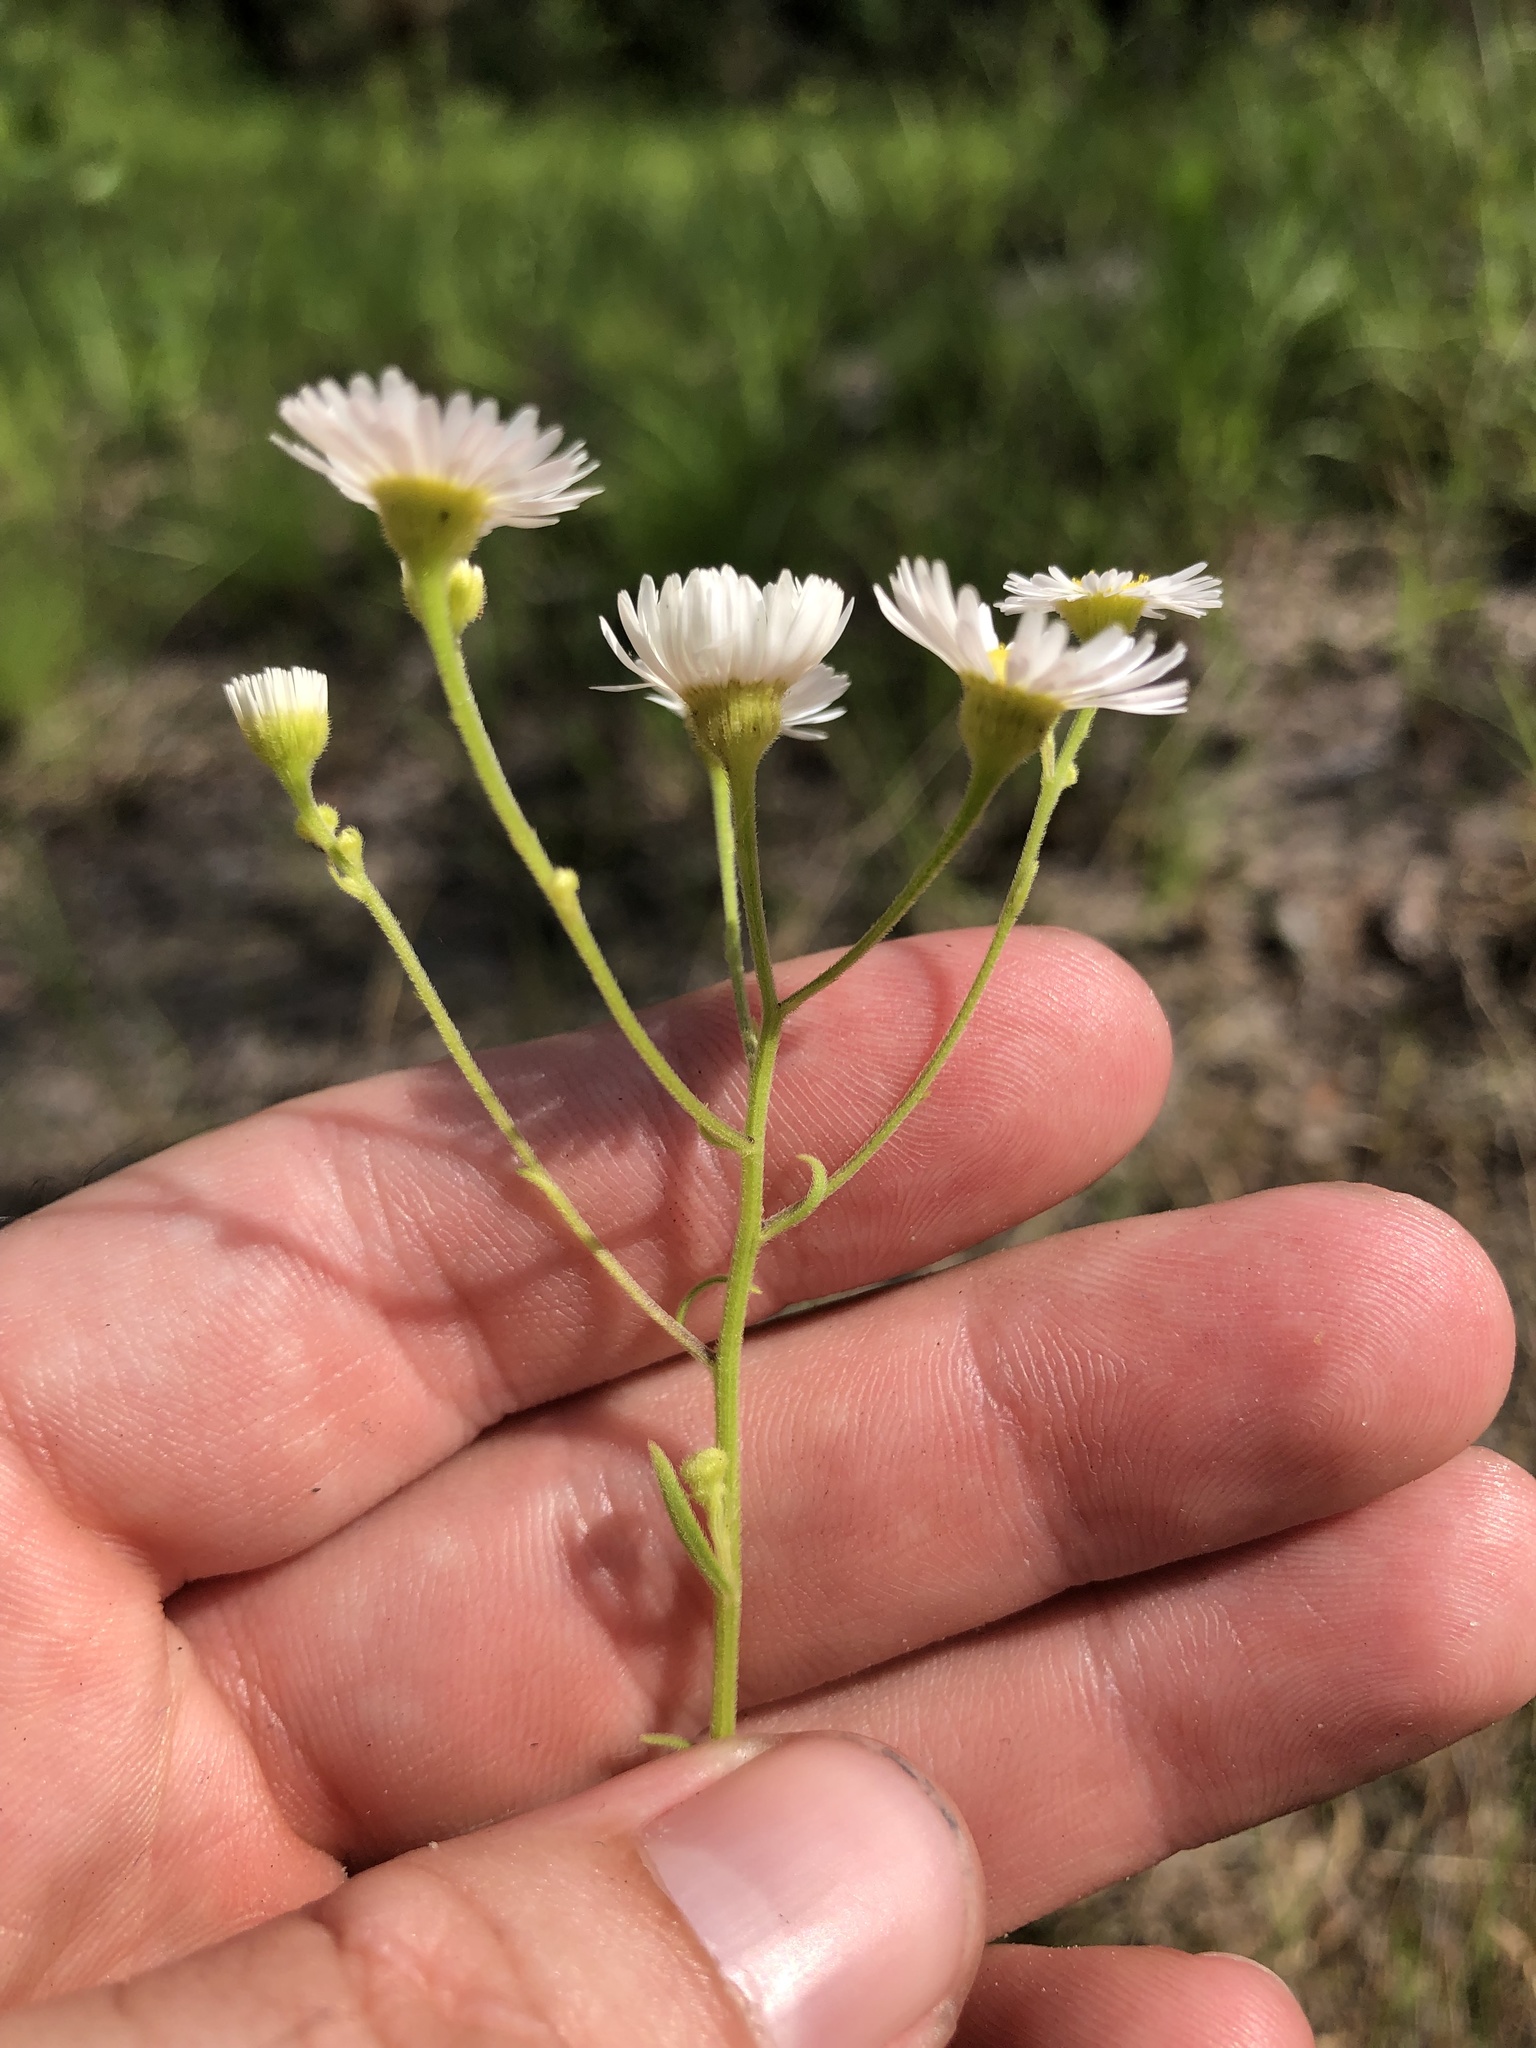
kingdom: Plantae
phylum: Tracheophyta
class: Magnoliopsida
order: Asterales
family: Asteraceae
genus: Erigeron
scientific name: Erigeron strigosus
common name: Common eastern fleabane
